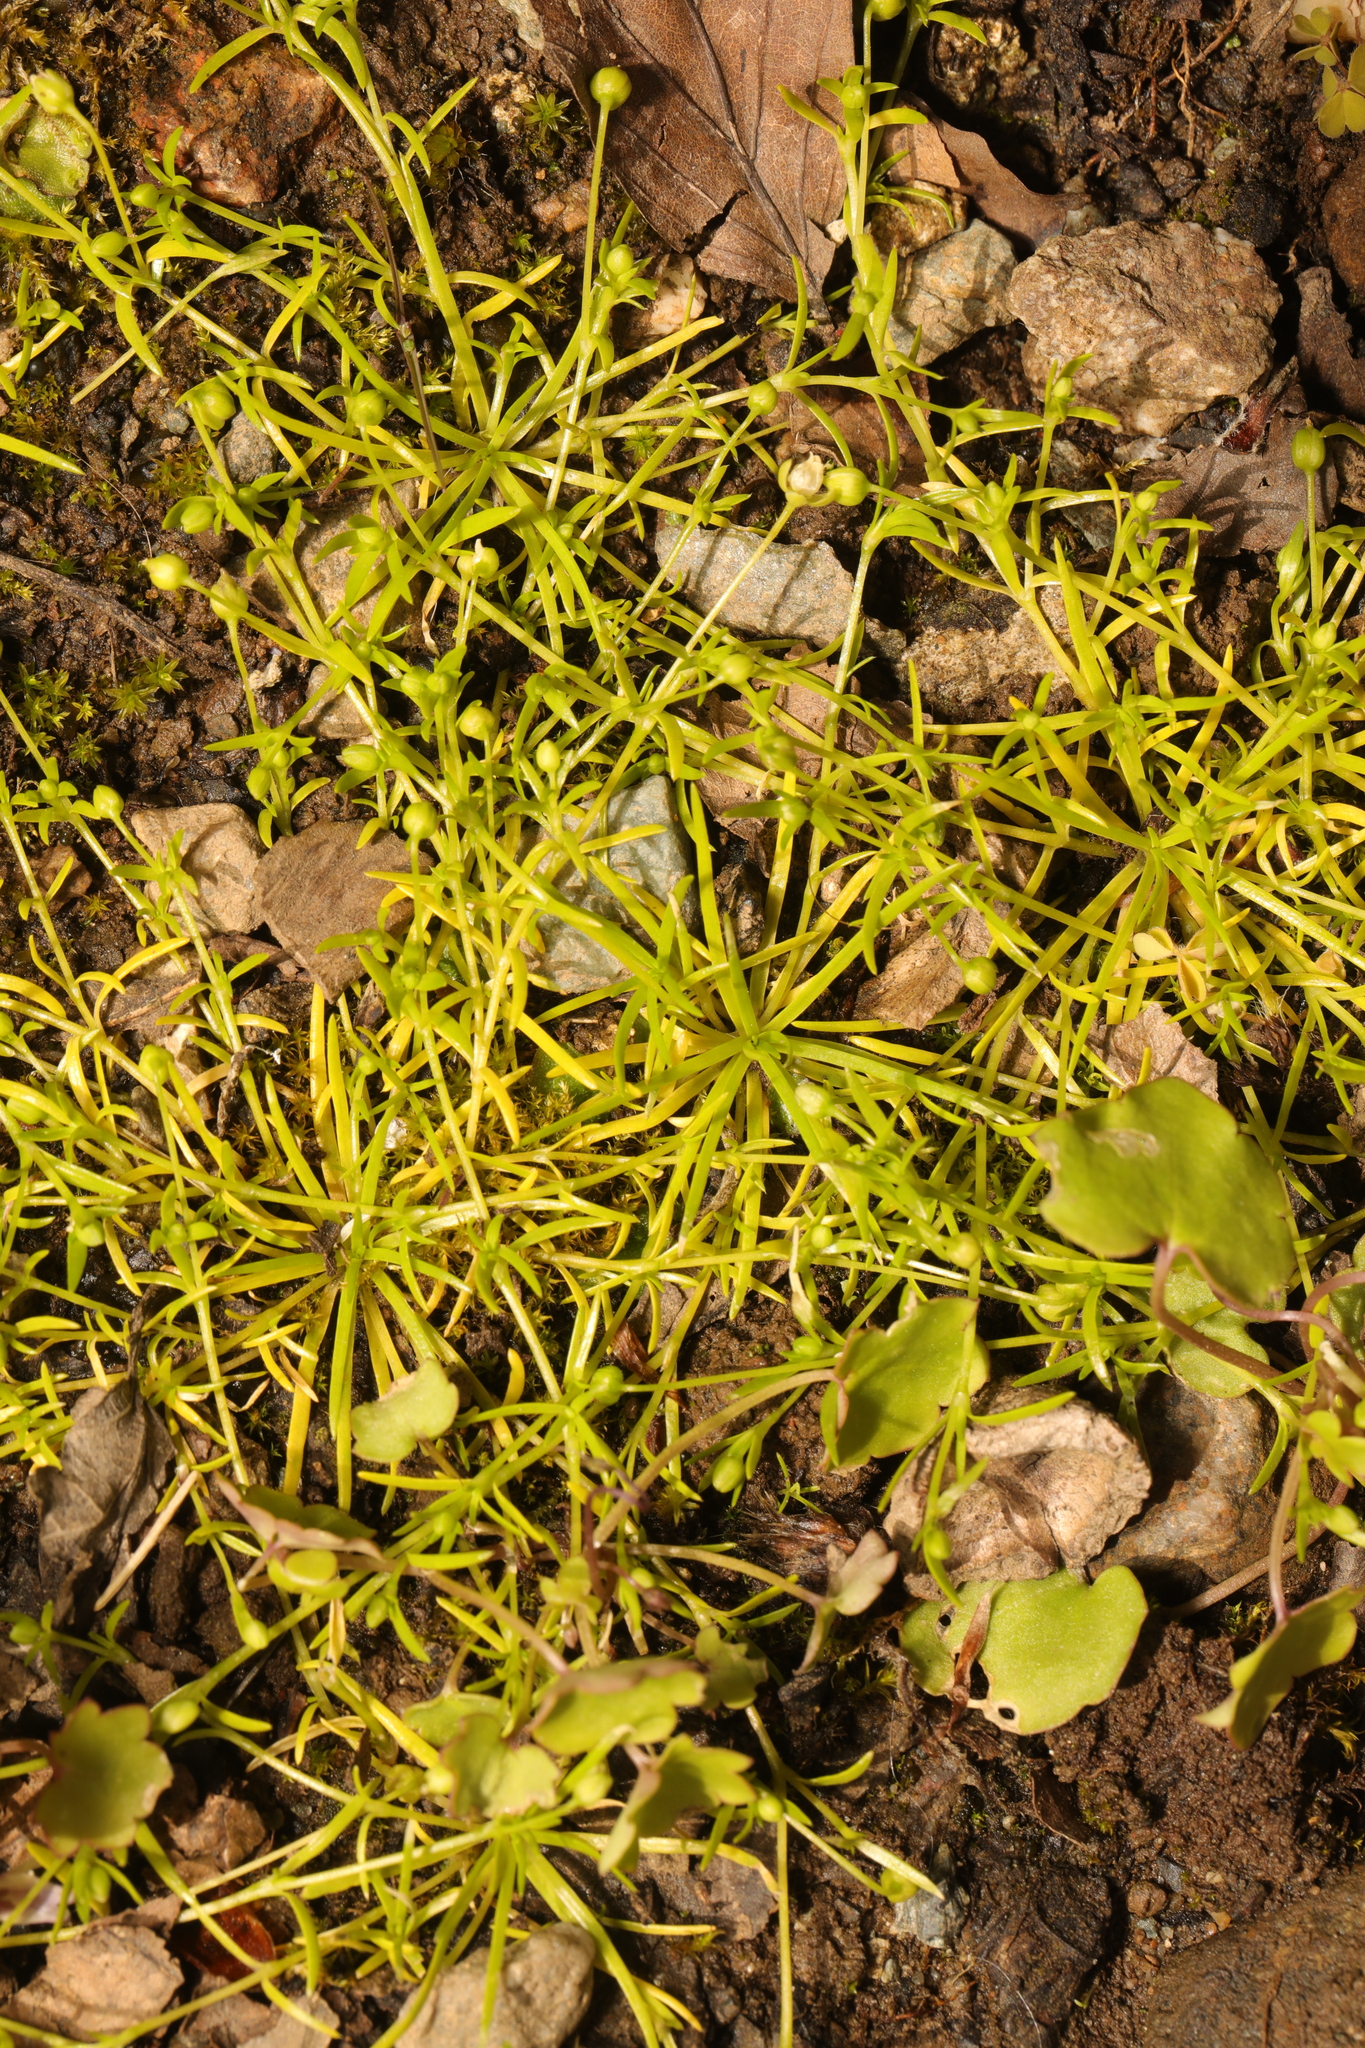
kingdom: Plantae
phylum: Tracheophyta
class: Magnoliopsida
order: Caryophyllales
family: Caryophyllaceae
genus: Sagina
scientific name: Sagina procumbens
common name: Procumbent pearlwort
